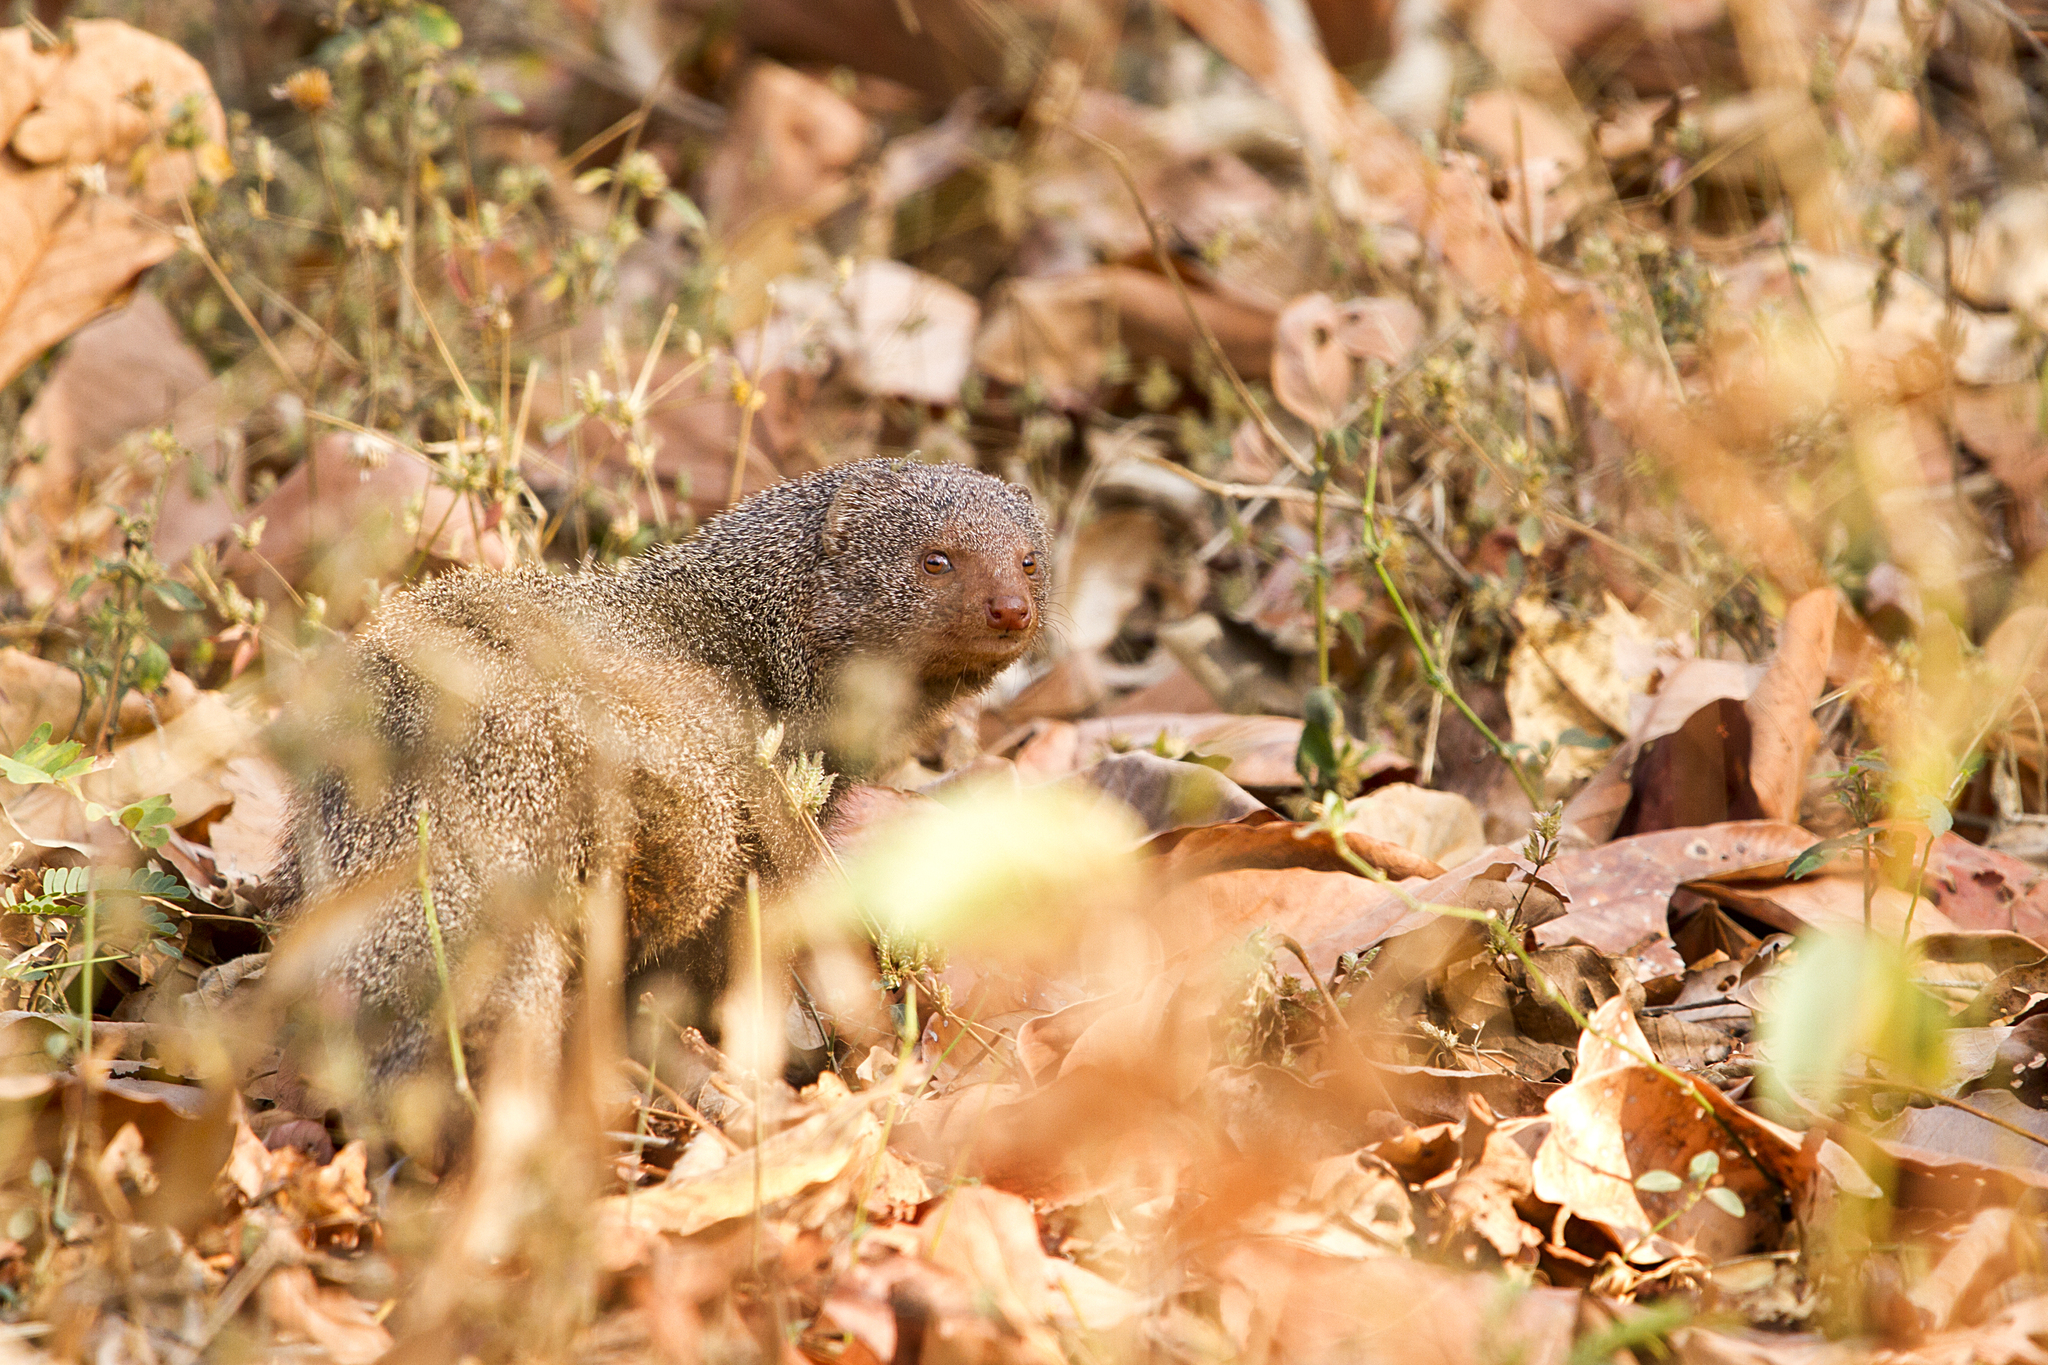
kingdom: Animalia
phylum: Chordata
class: Mammalia
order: Carnivora
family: Herpestidae
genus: Herpestes
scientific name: Herpestes edwardsi
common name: Indian gray mongoose
